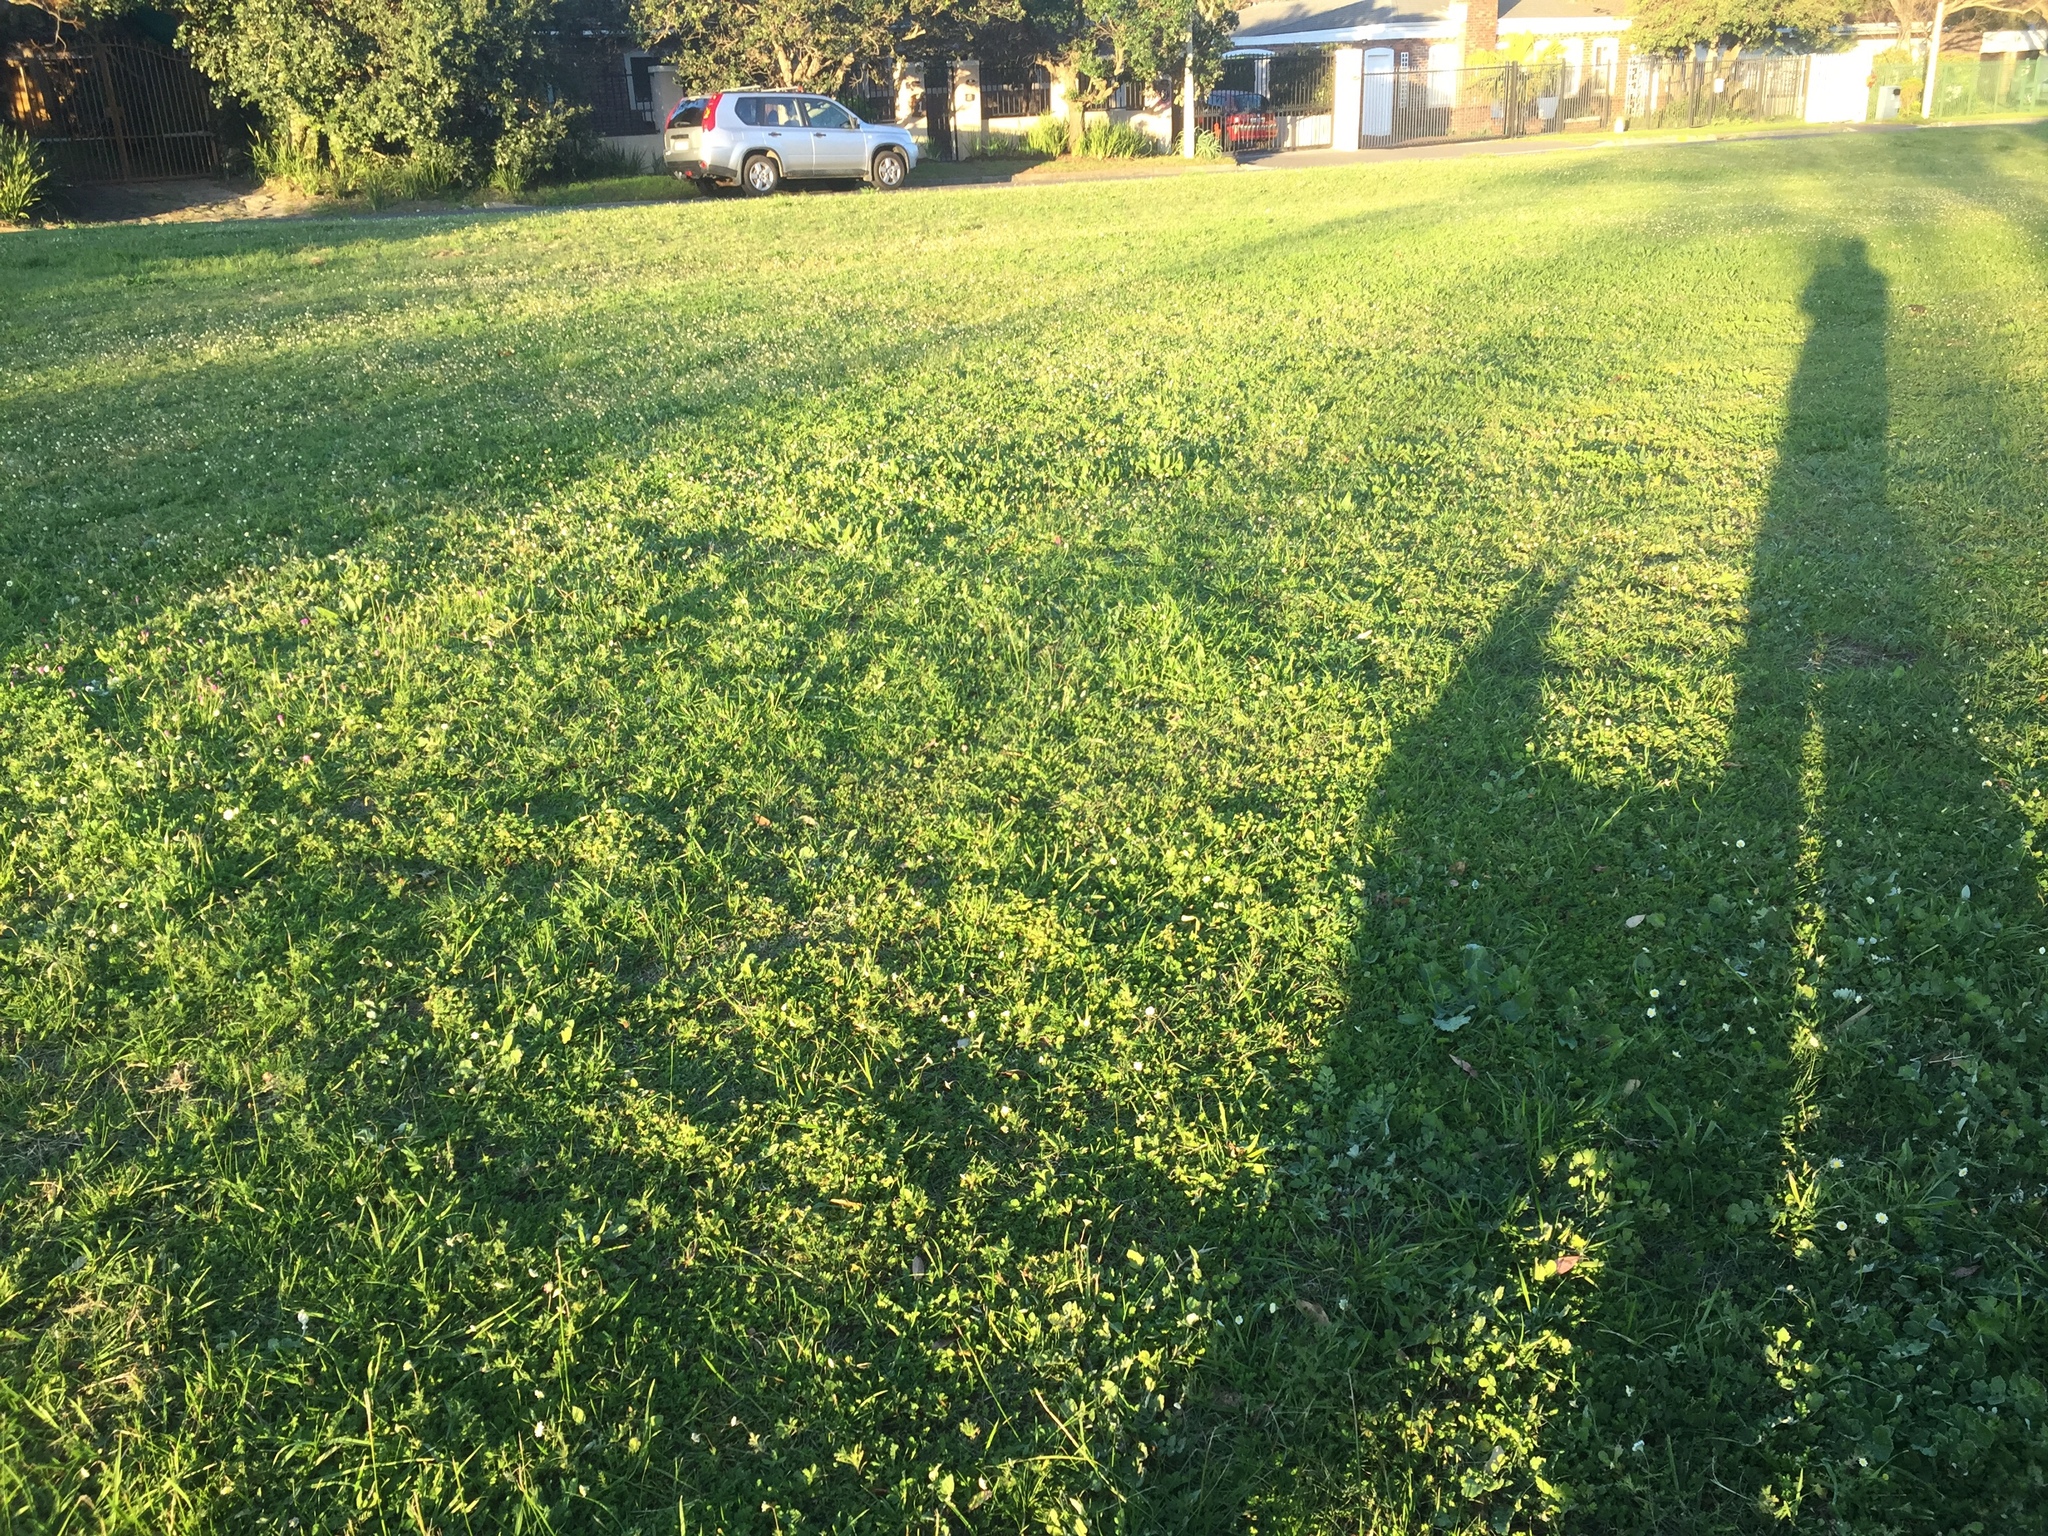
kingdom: Plantae
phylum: Tracheophyta
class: Magnoliopsida
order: Asterales
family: Asteraceae
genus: Cotula
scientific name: Cotula turbinata
